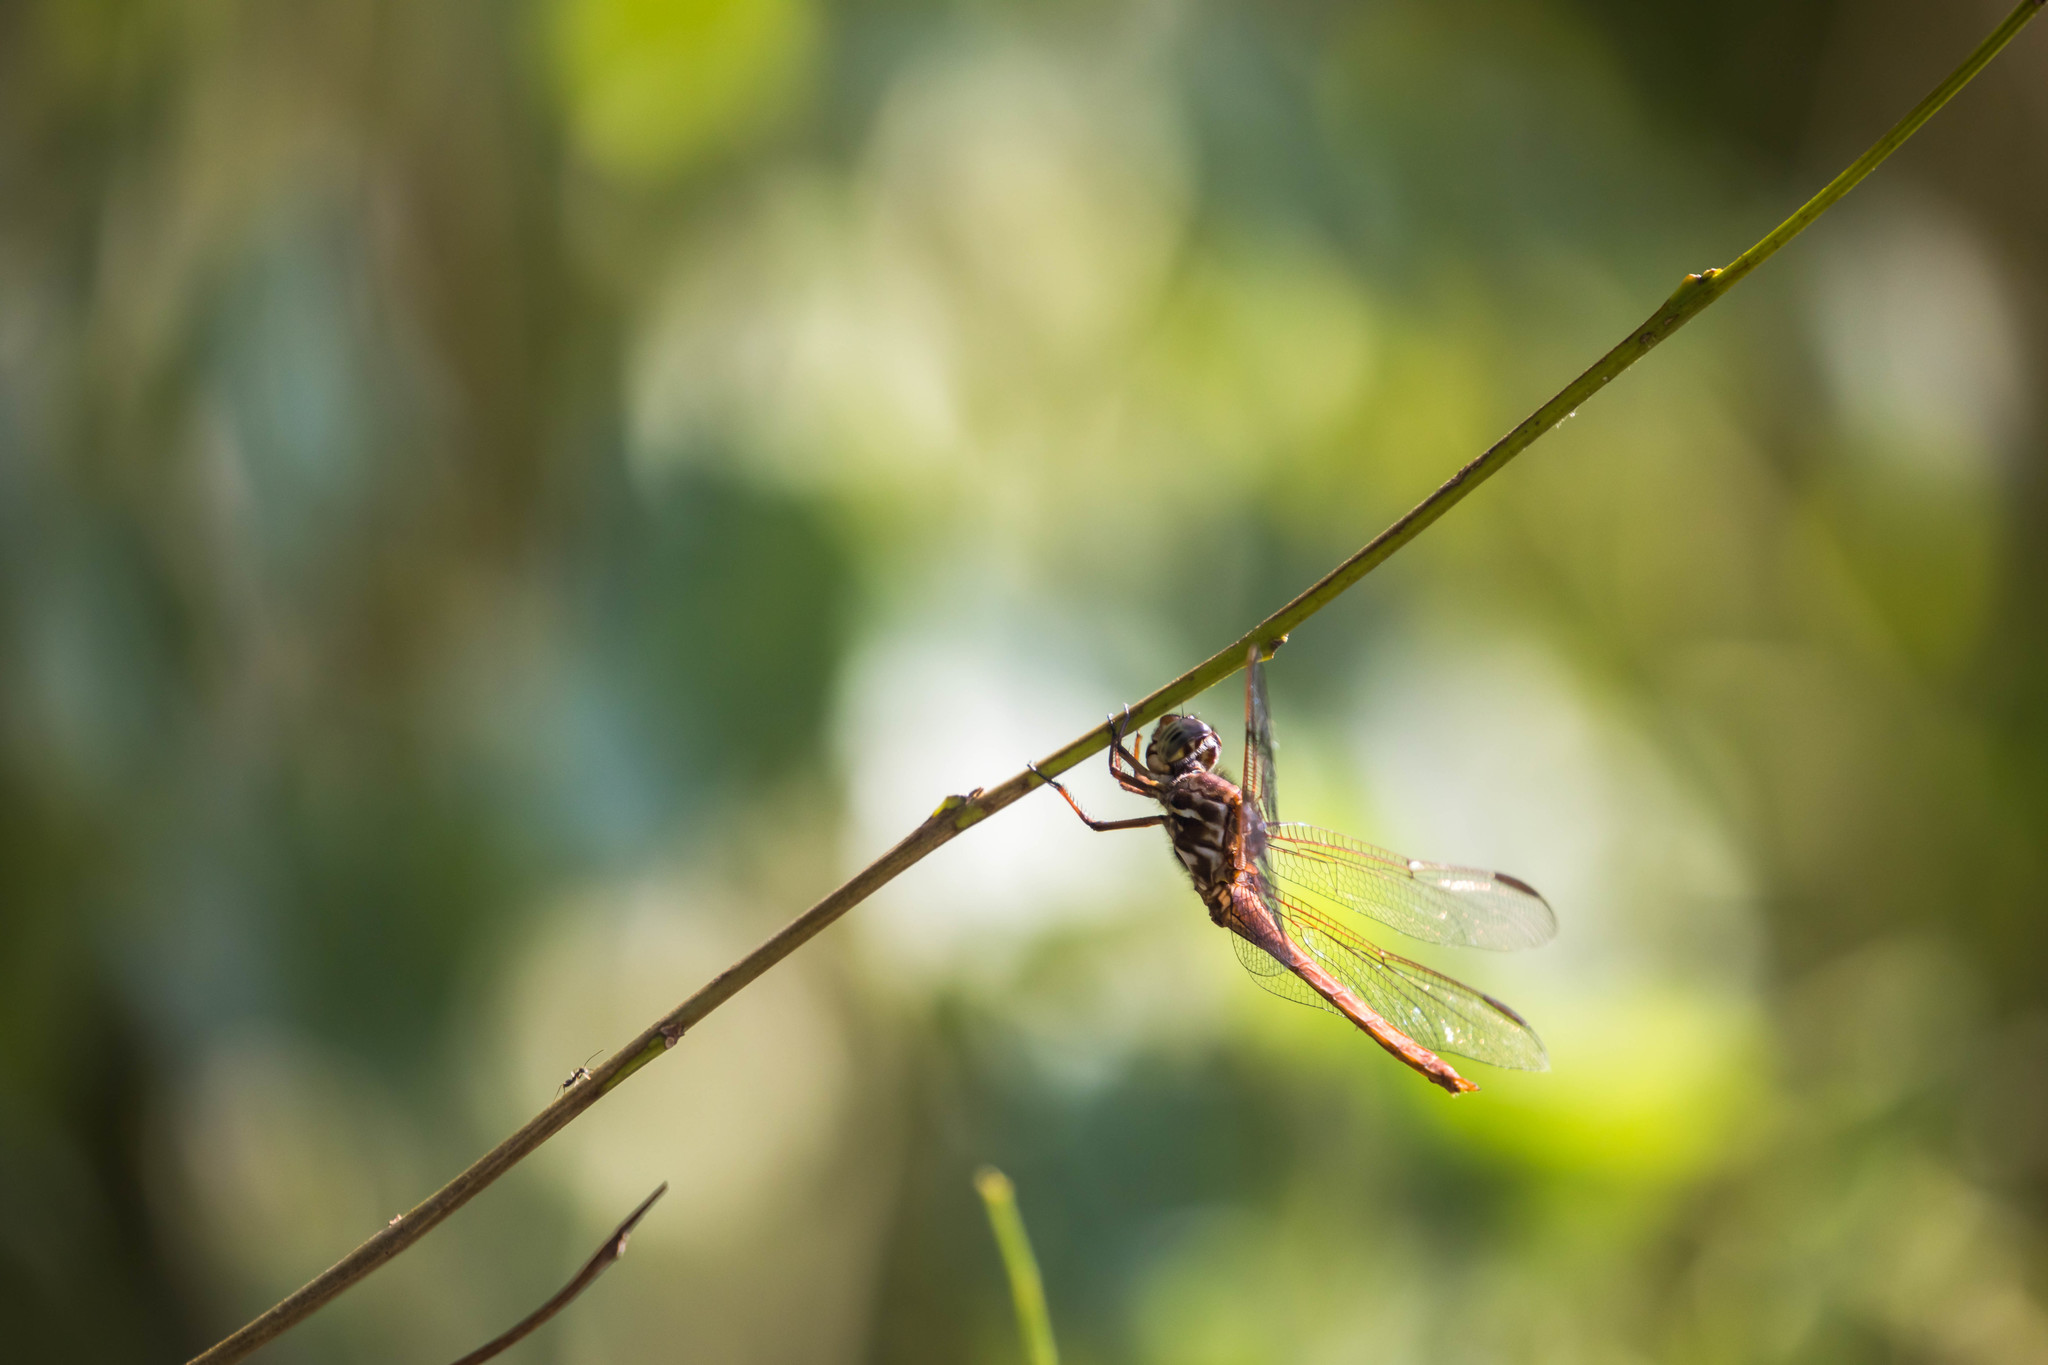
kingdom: Animalia
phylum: Arthropoda
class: Insecta
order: Odonata
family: Libellulidae
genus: Orthemis
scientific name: Orthemis ferruginea
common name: Roseate skimmer
